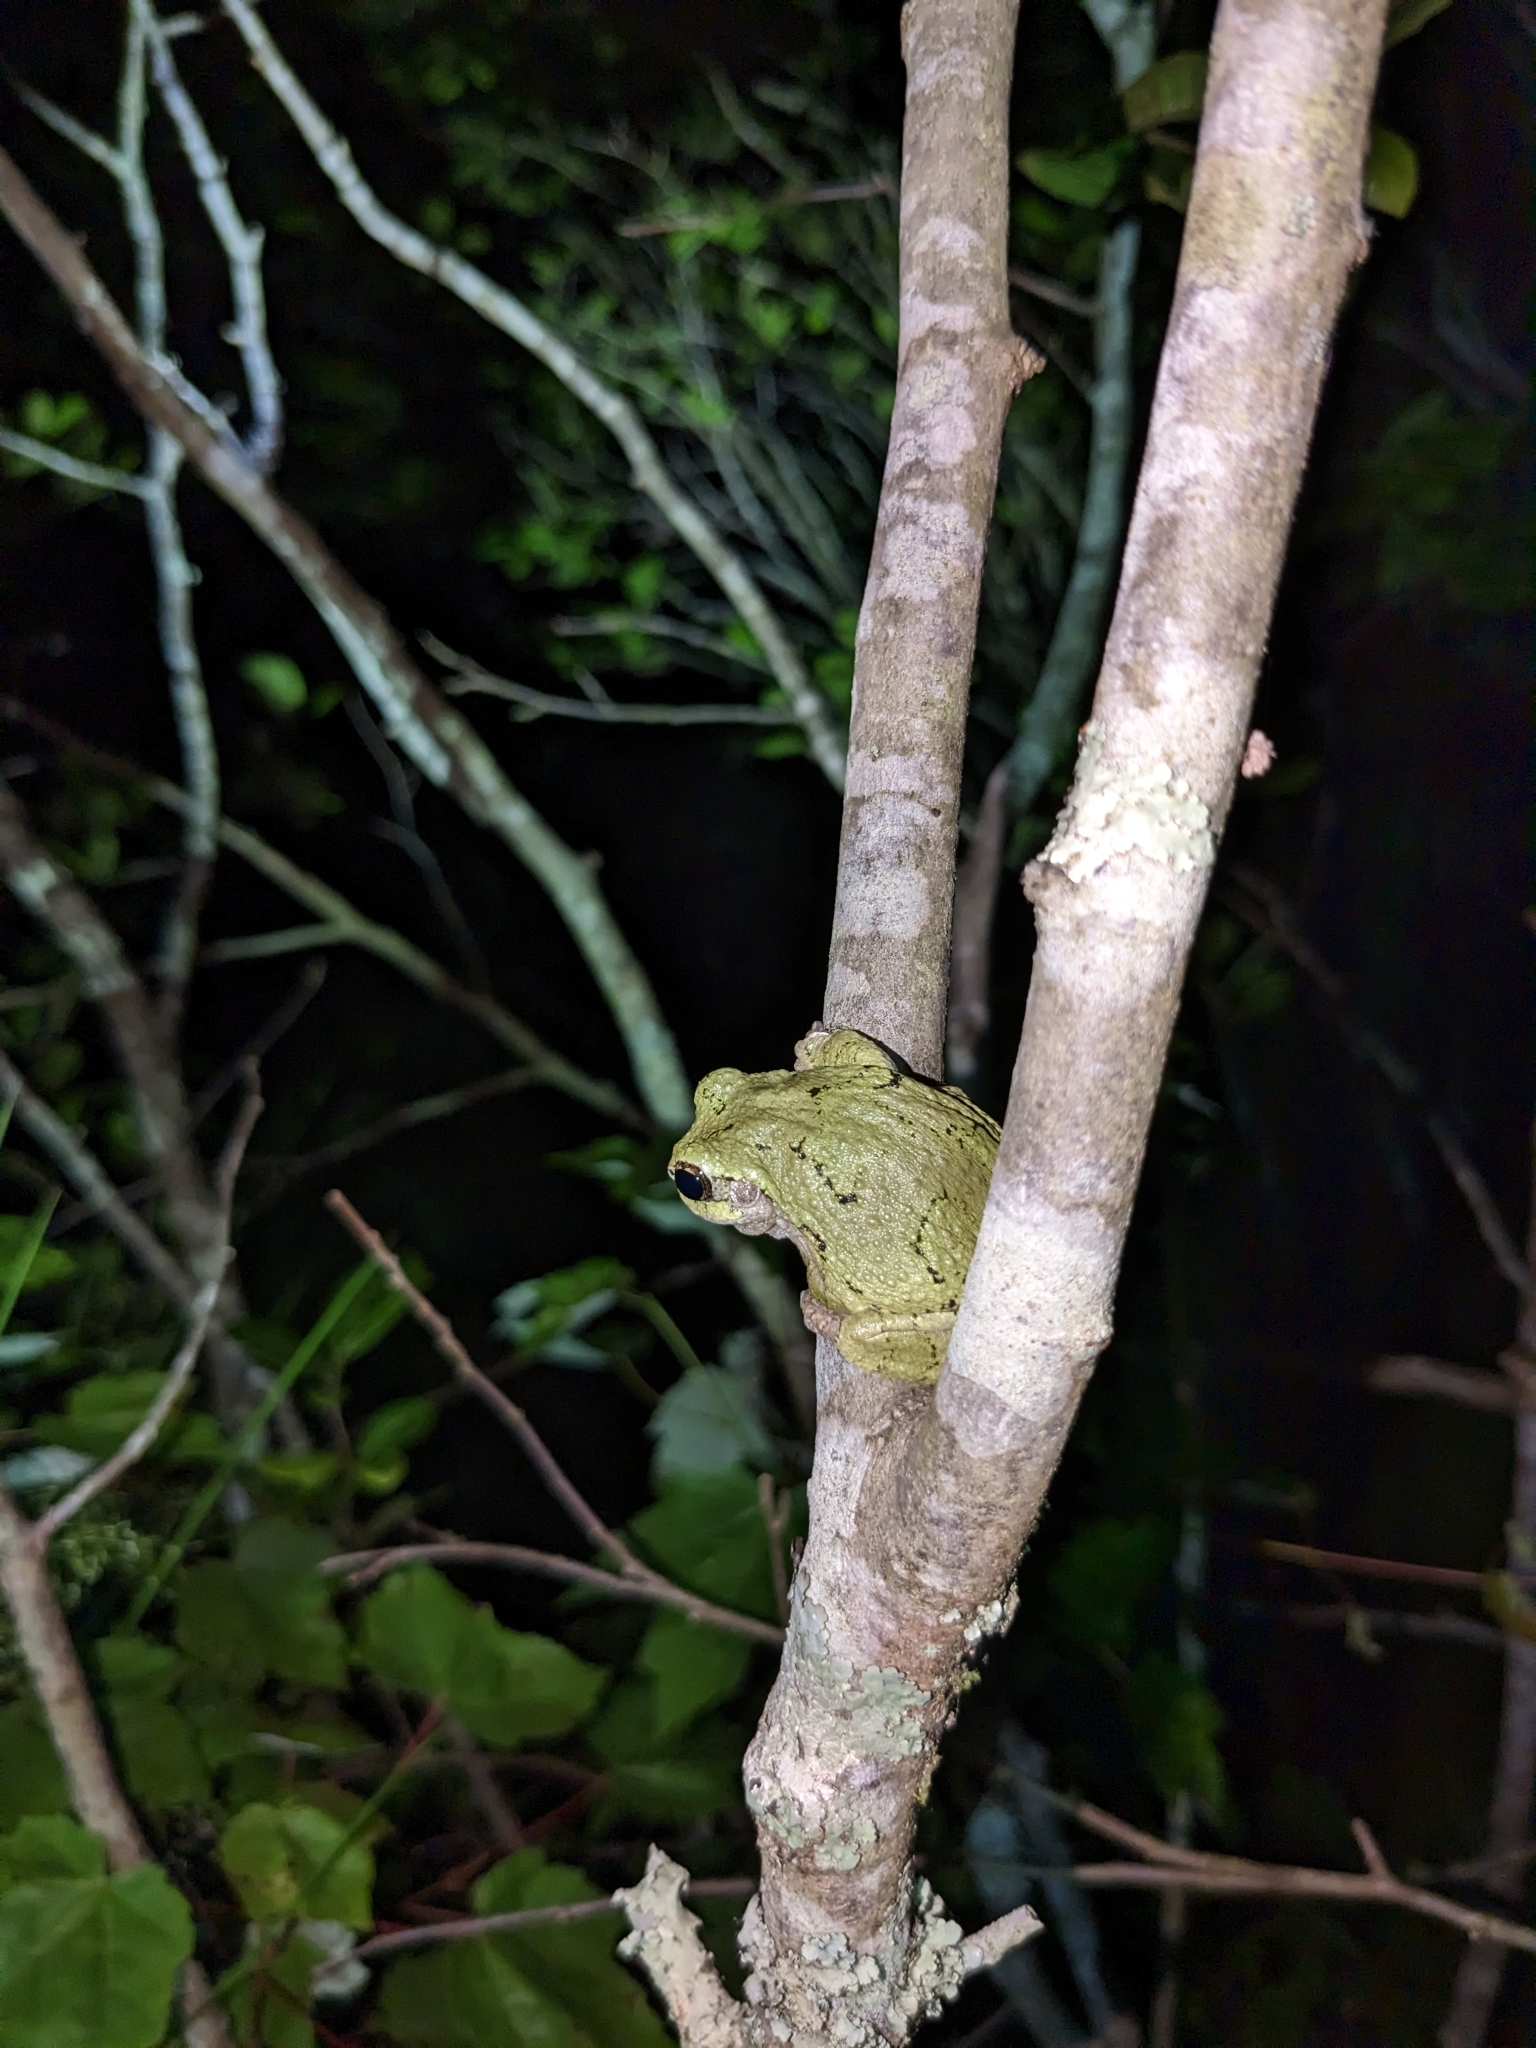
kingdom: Animalia
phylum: Chordata
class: Amphibia
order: Anura
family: Hylidae
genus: Dryophytes
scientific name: Dryophytes versicolor
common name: Gray treefrog
